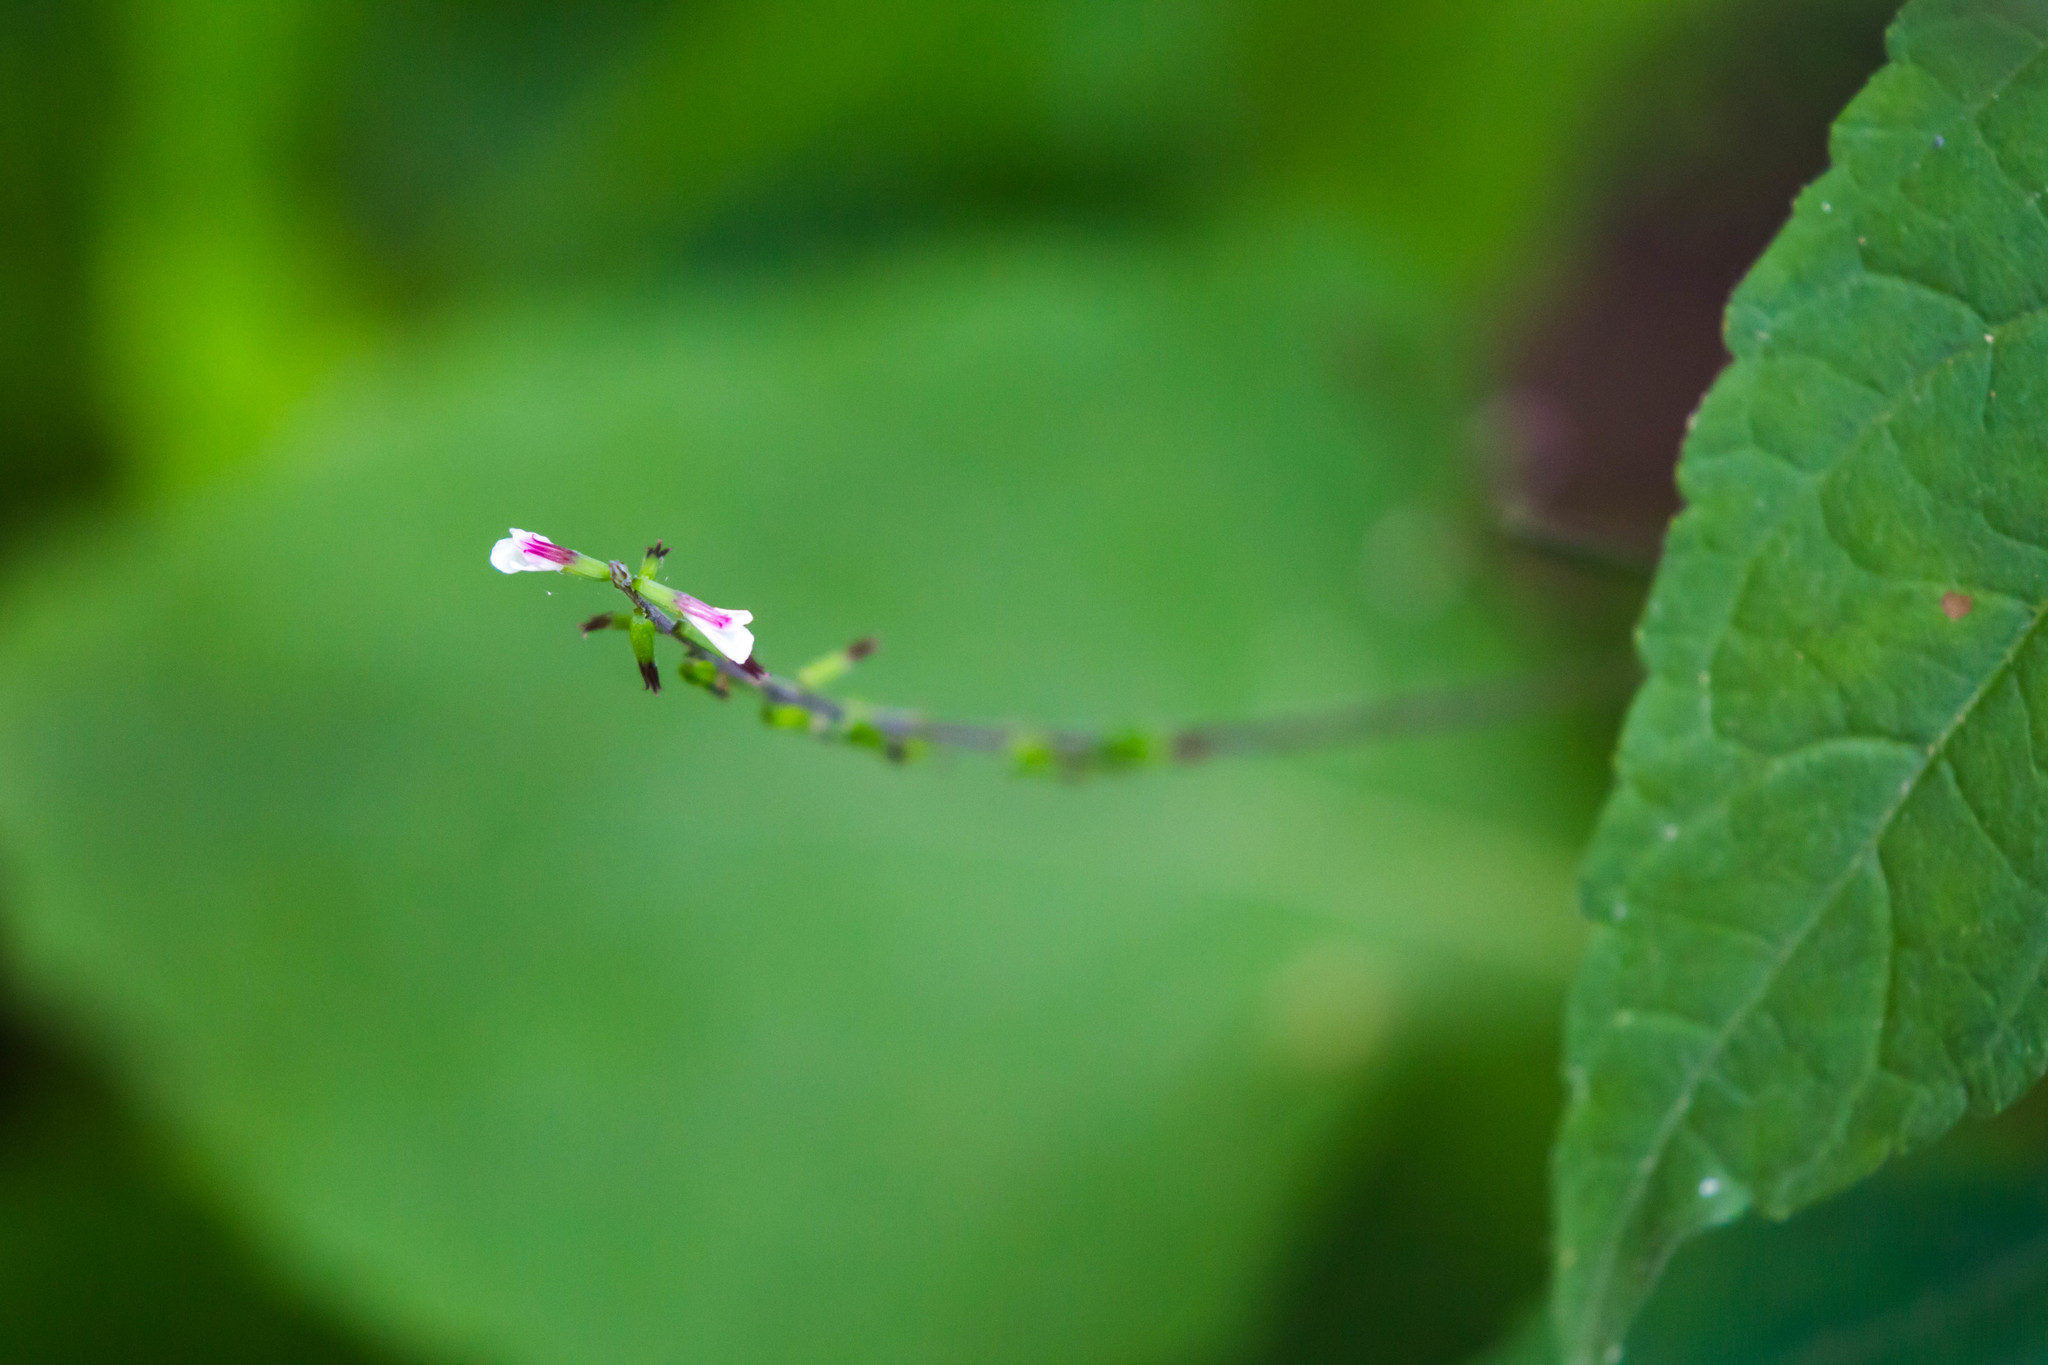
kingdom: Plantae
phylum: Tracheophyta
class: Magnoliopsida
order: Lamiales
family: Phrymaceae
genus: Phryma
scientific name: Phryma leptostachya
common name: American lopseed
